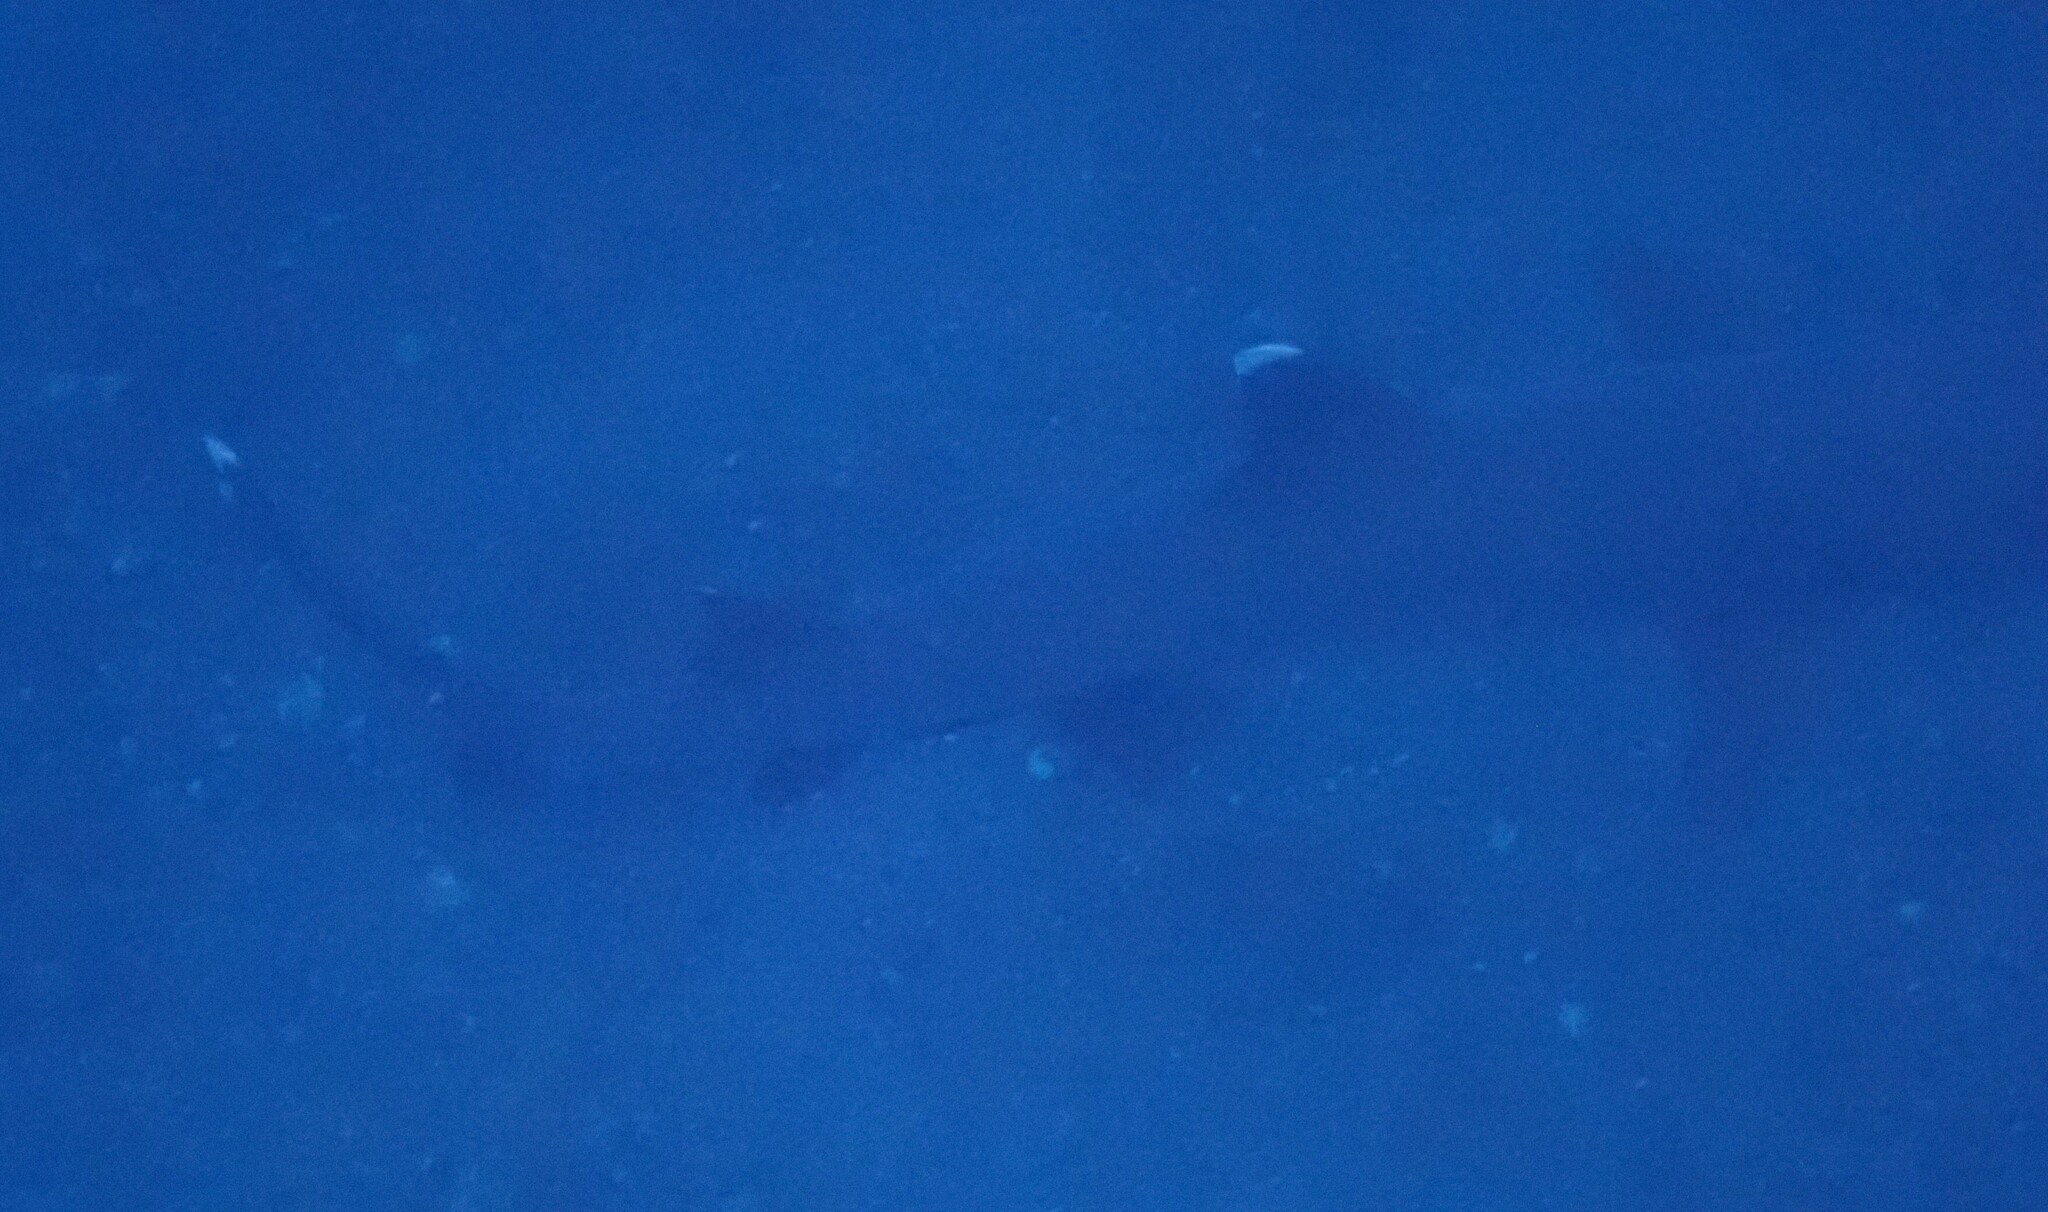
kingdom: Animalia
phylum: Chordata
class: Elasmobranchii
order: Carcharhiniformes
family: Carcharhinidae
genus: Triaenodon
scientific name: Triaenodon obesus
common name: Whitetip reef shark
